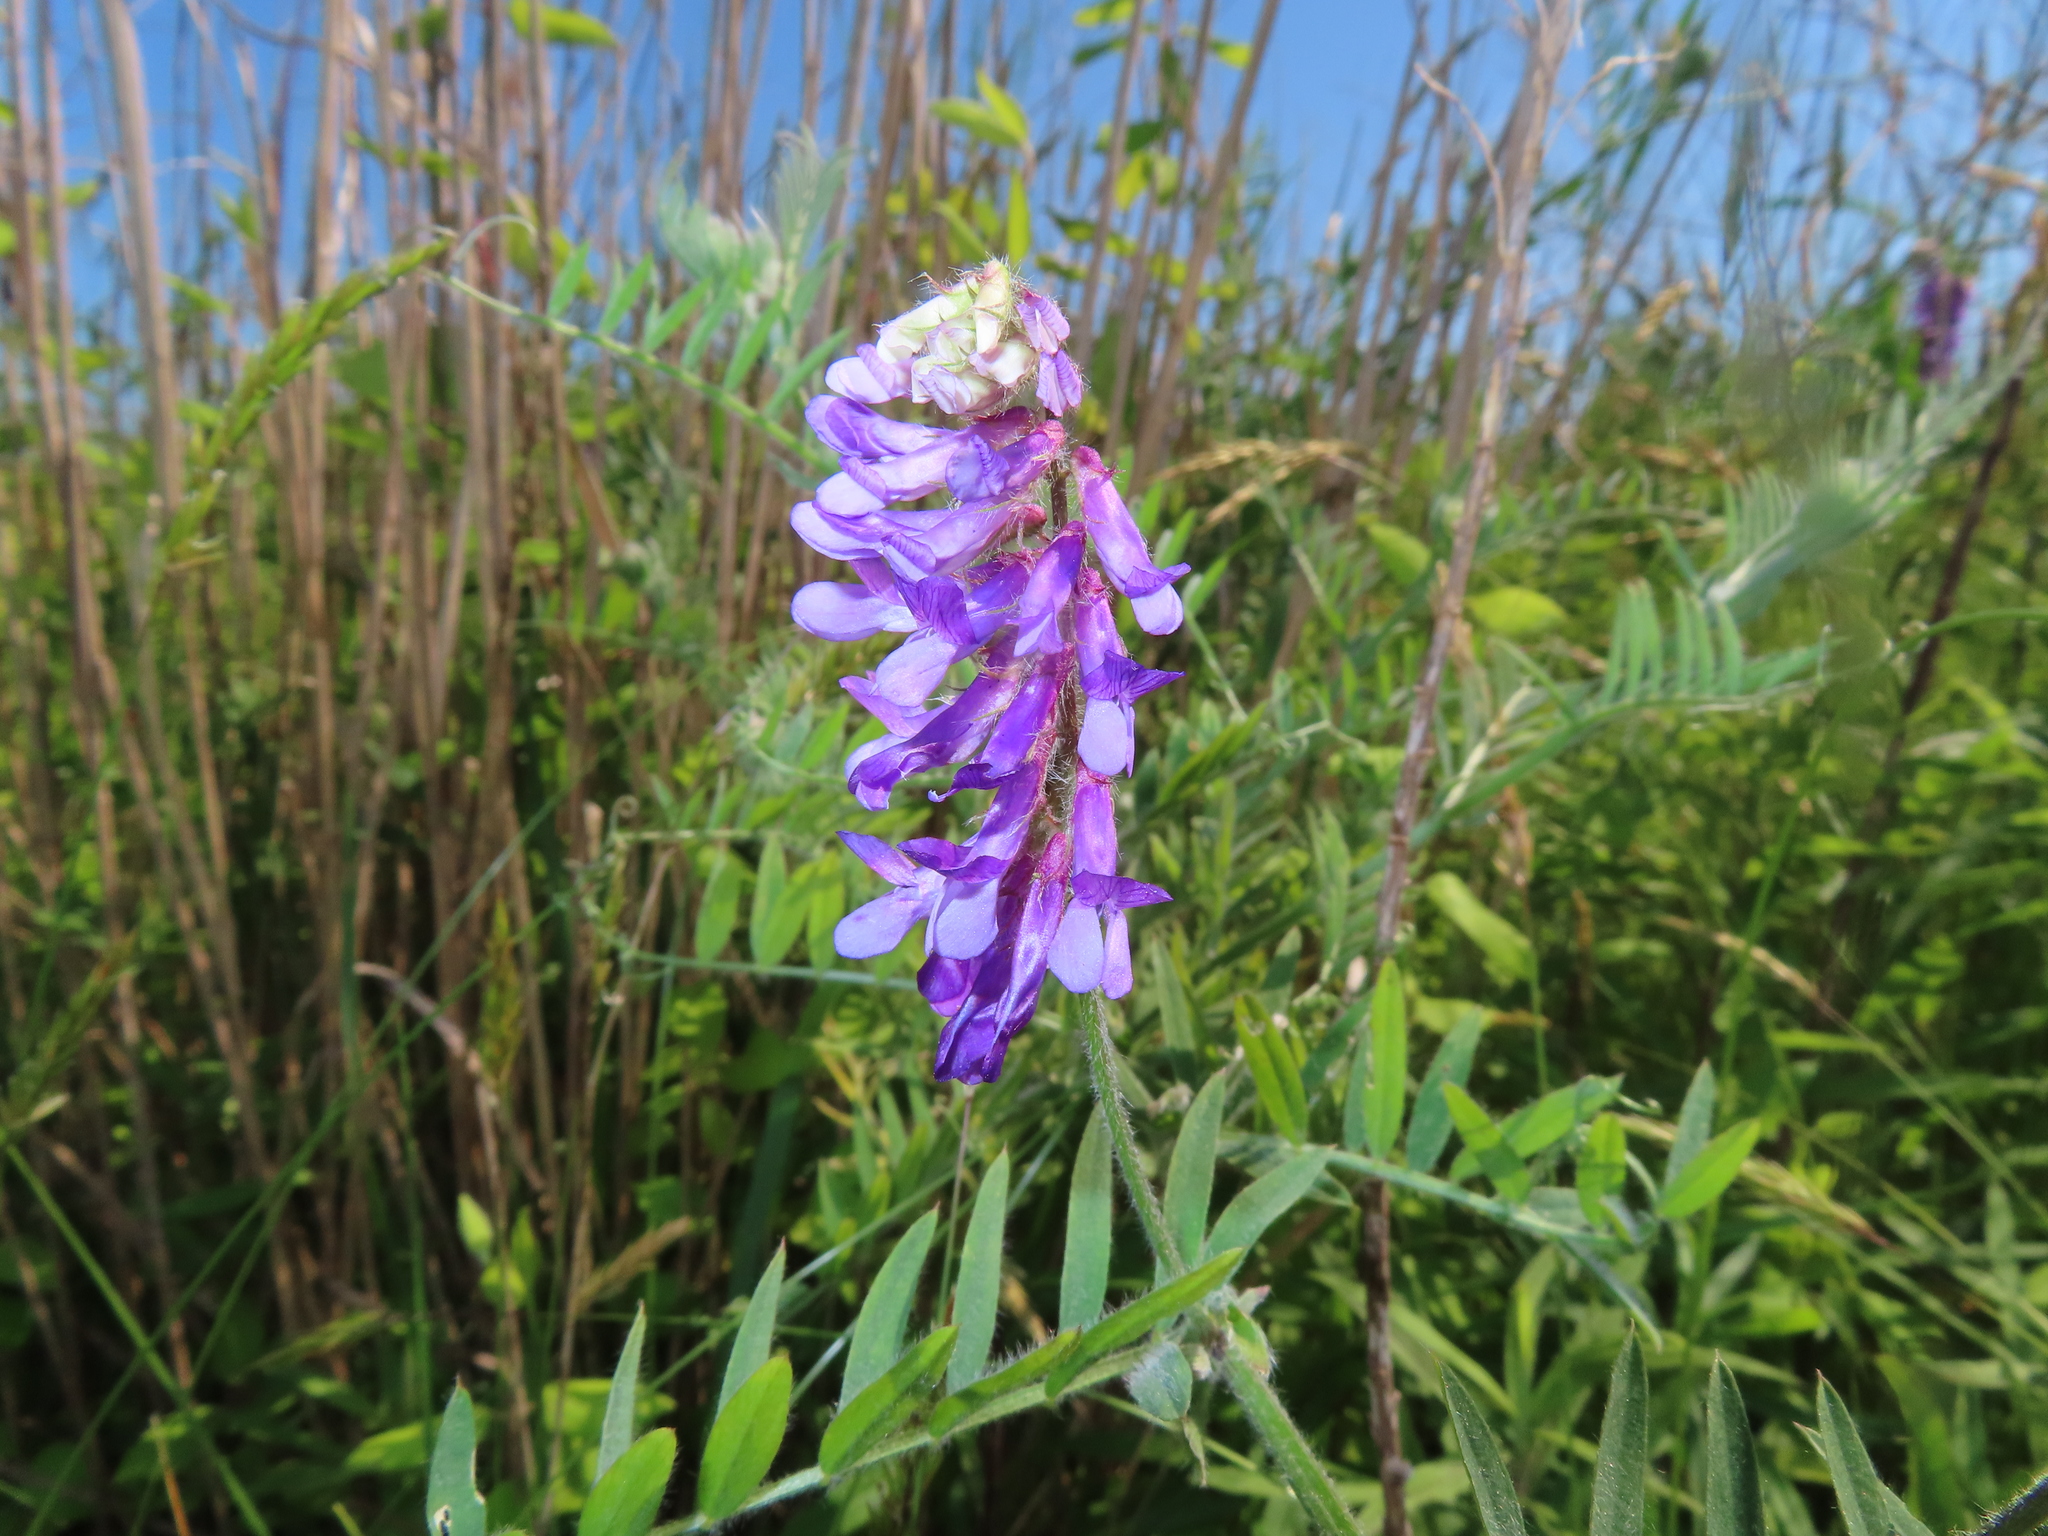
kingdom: Plantae
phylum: Tracheophyta
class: Magnoliopsida
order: Fabales
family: Fabaceae
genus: Vicia
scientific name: Vicia villosa
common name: Fodder vetch
